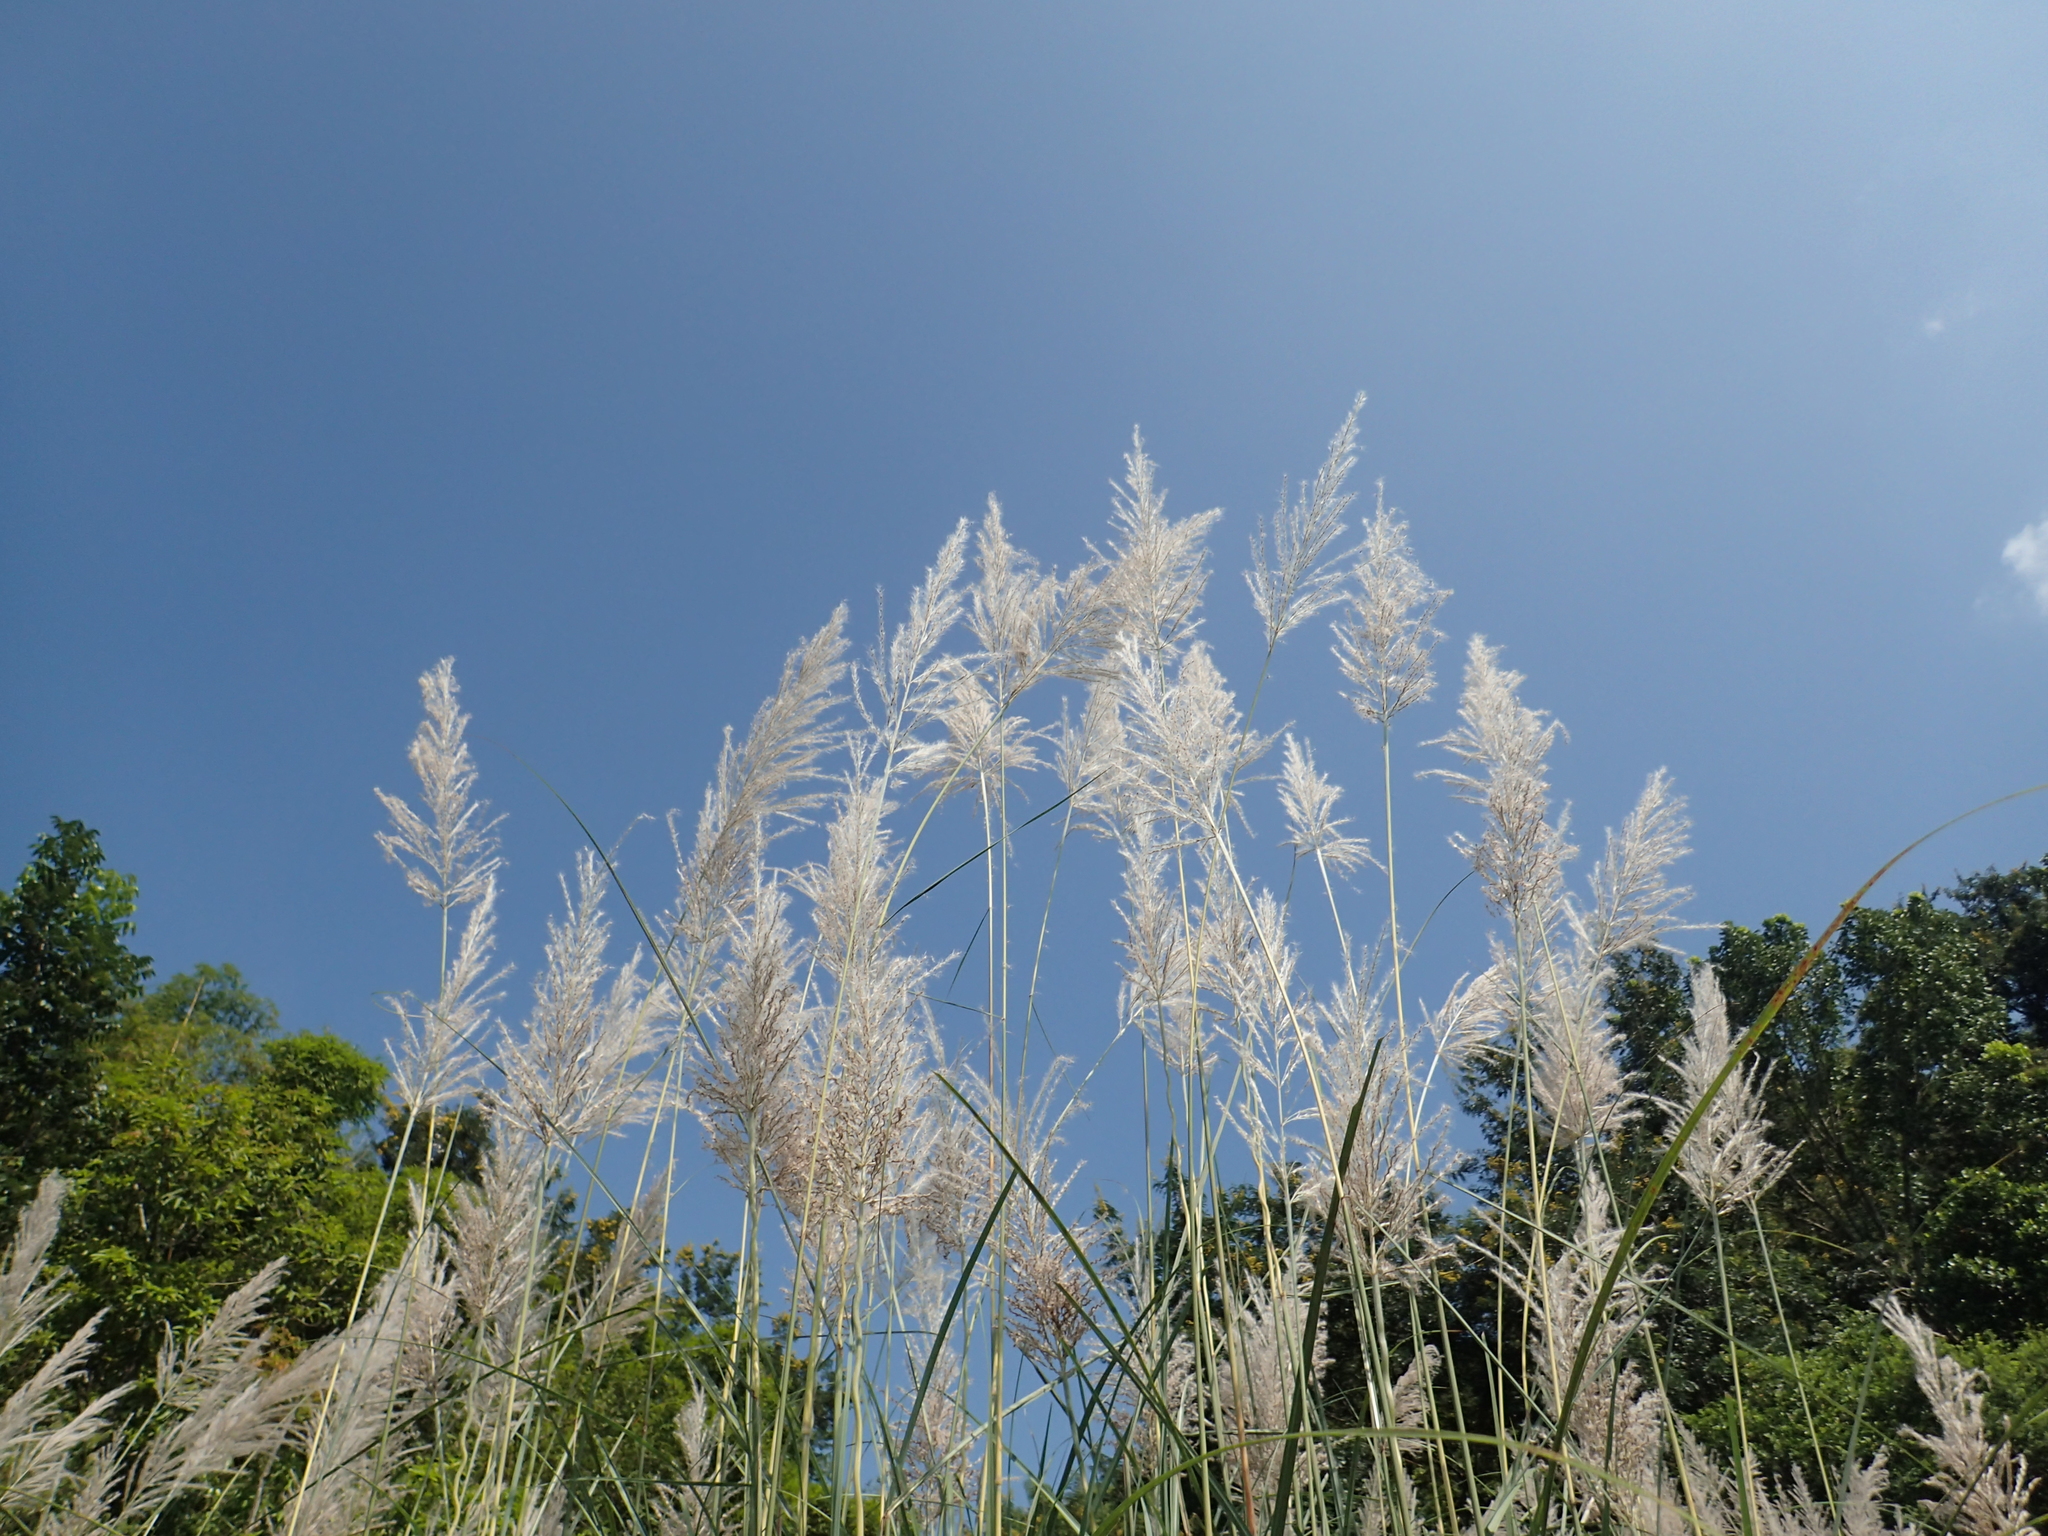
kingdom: Plantae
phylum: Tracheophyta
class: Liliopsida
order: Poales
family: Poaceae
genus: Saccharum
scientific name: Saccharum spontaneum
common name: Wild sugarcane
